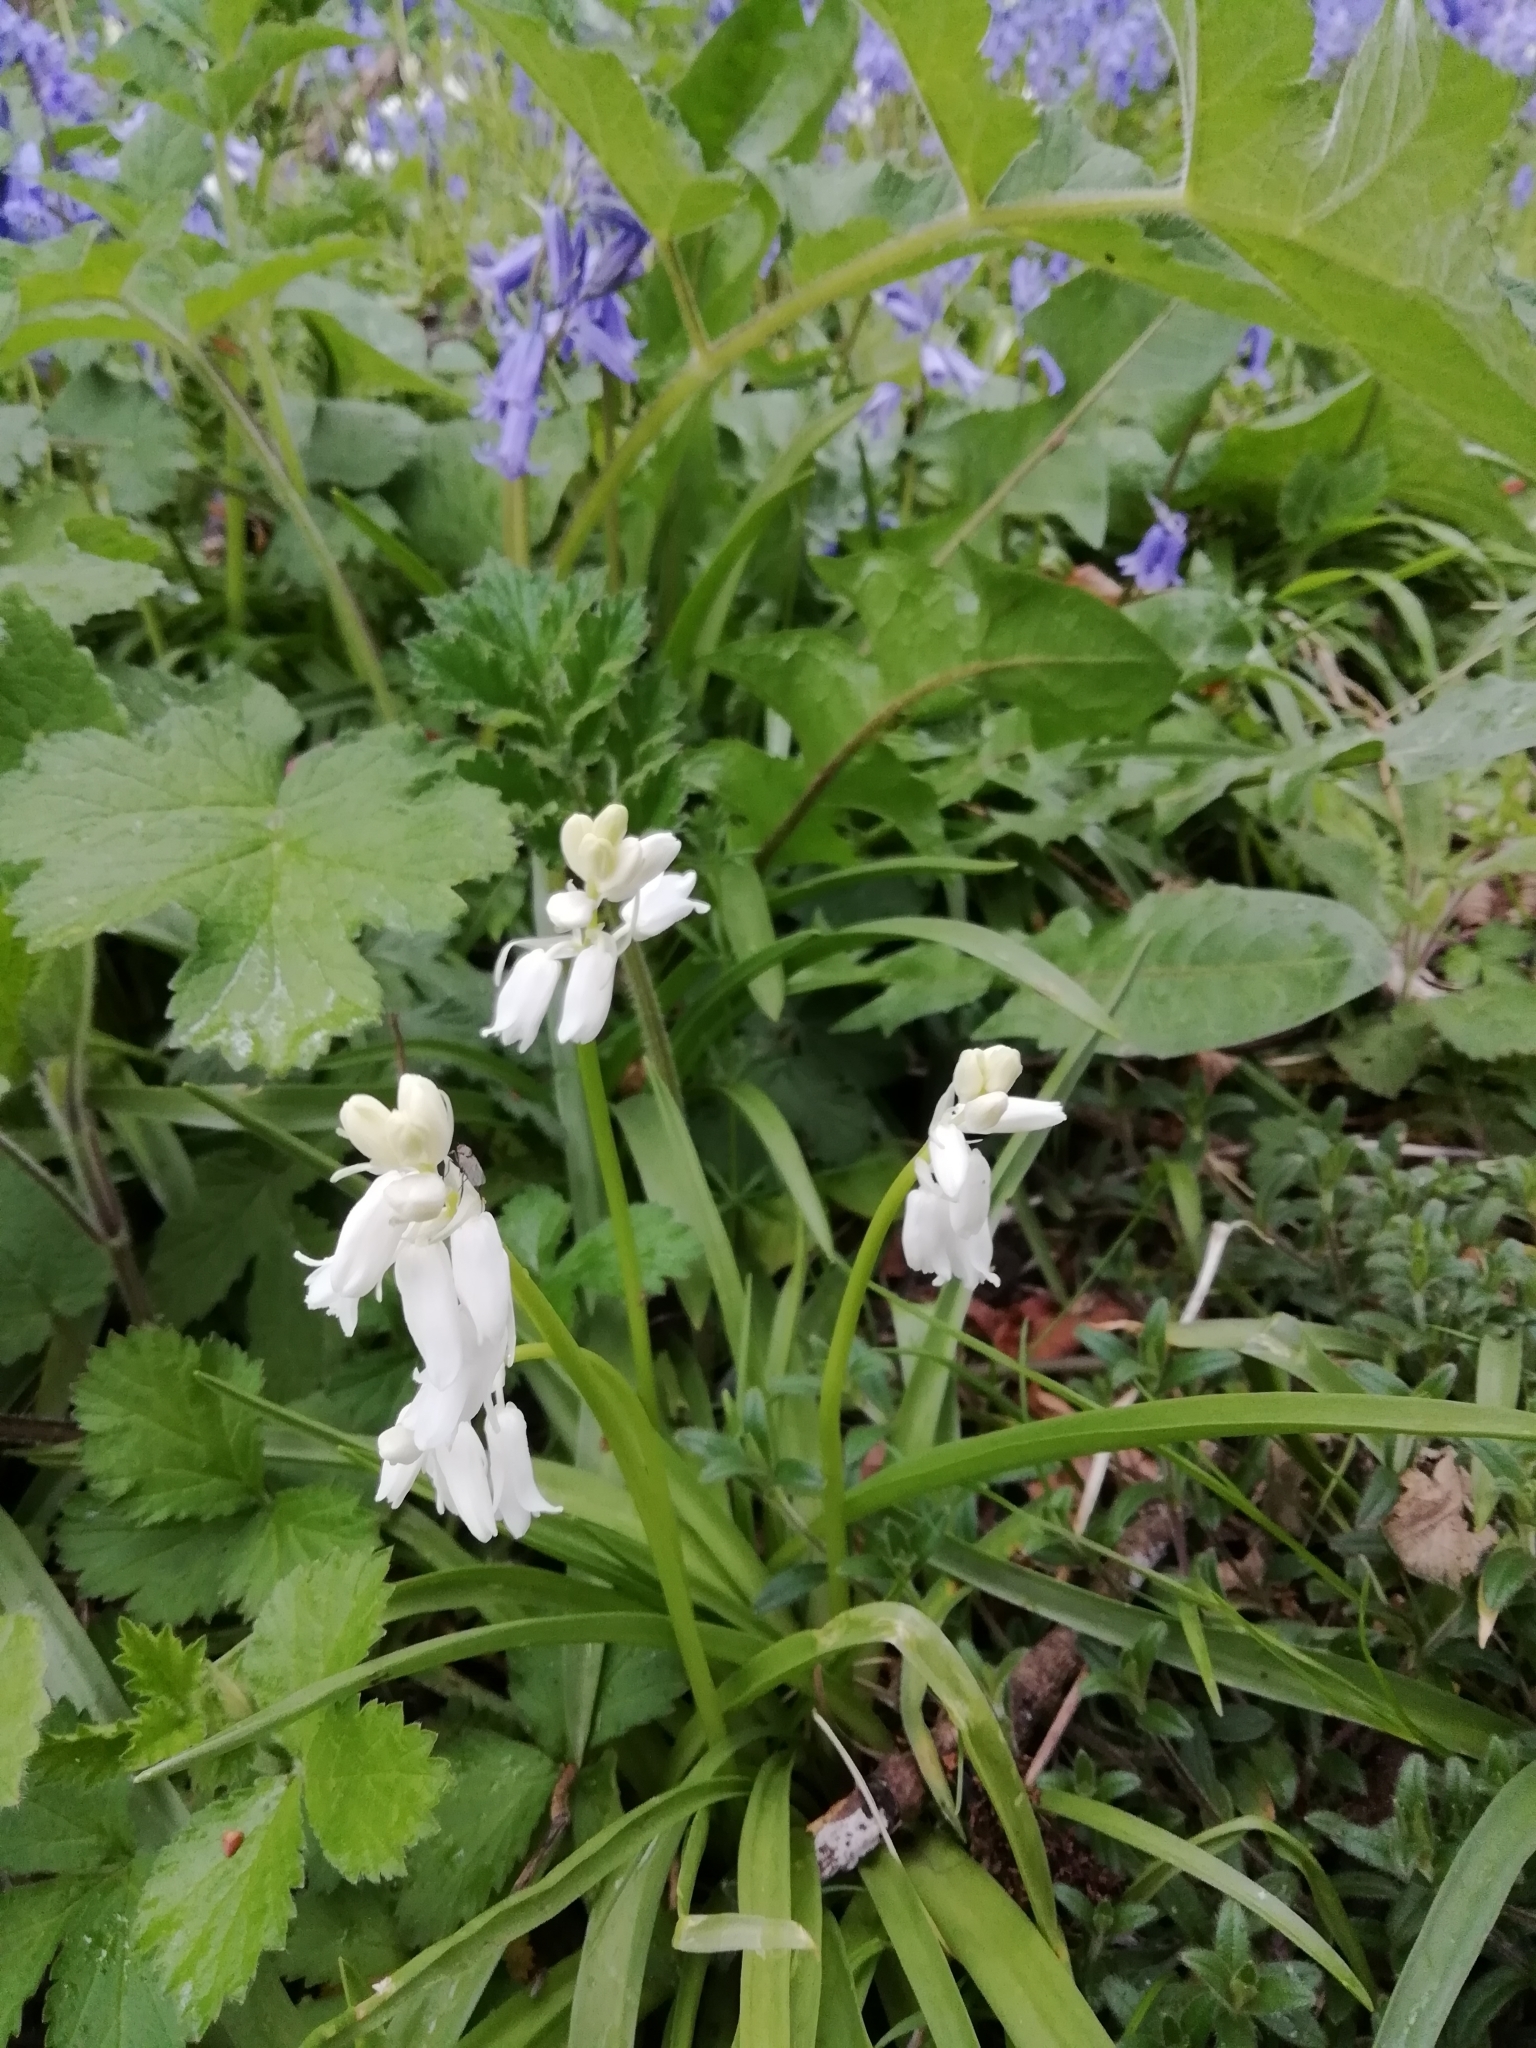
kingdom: Plantae
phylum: Tracheophyta
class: Liliopsida
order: Asparagales
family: Asparagaceae
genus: Hyacinthoides
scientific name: Hyacinthoides massartiana
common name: Hyacinthoides
